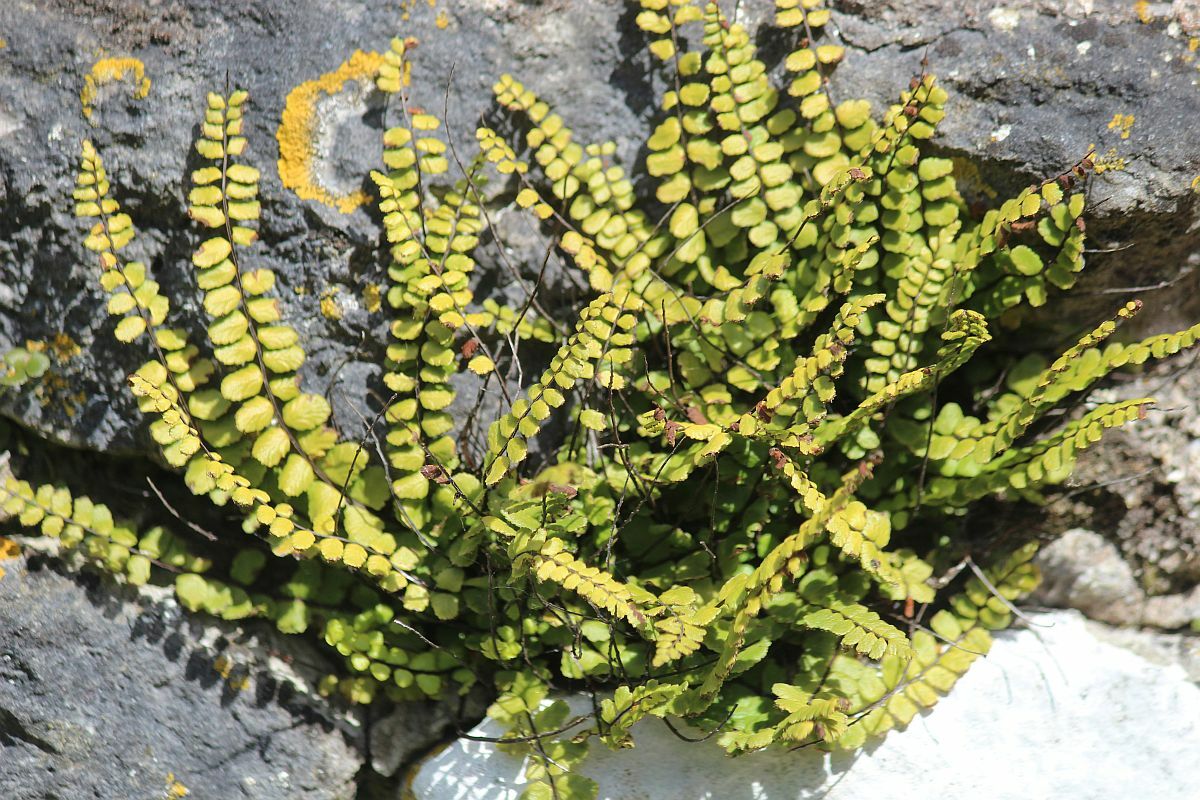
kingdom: Plantae
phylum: Tracheophyta
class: Polypodiopsida
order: Polypodiales
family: Aspleniaceae
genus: Asplenium
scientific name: Asplenium trichomanes
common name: Maidenhair spleenwort
